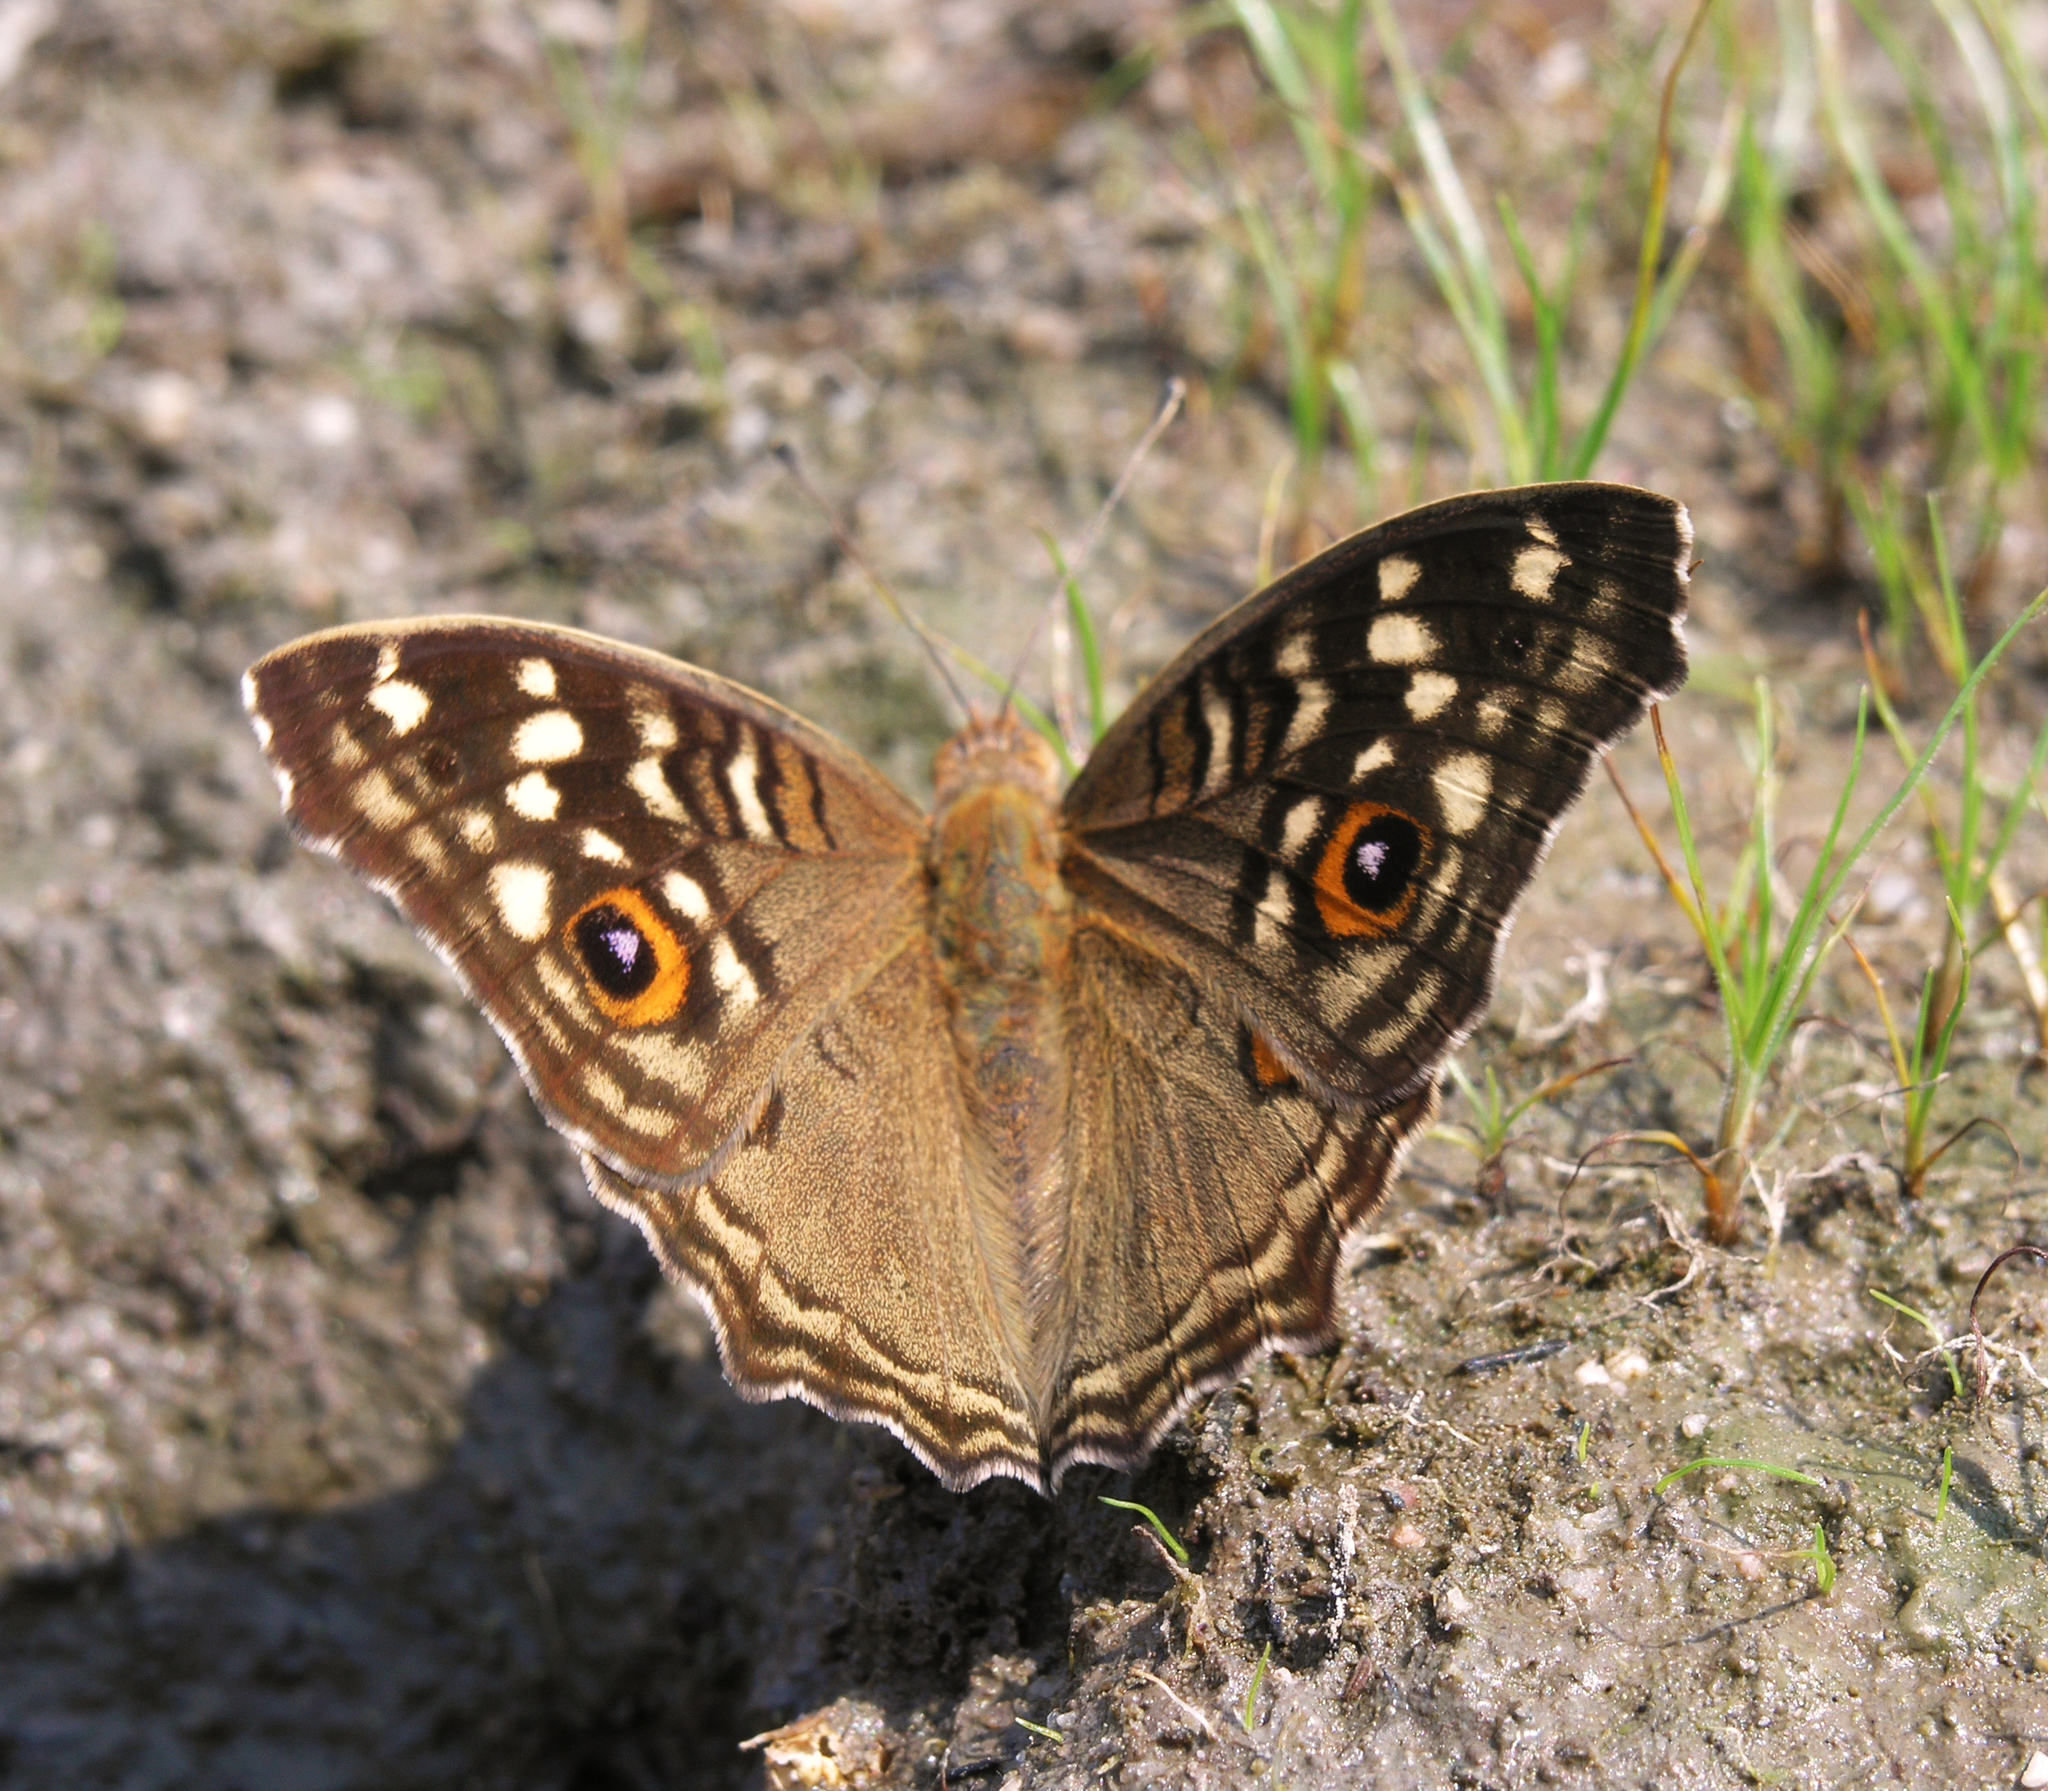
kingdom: Animalia
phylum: Arthropoda
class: Insecta
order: Lepidoptera
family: Nymphalidae
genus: Junonia
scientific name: Junonia lemonias
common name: Lemon pansy
